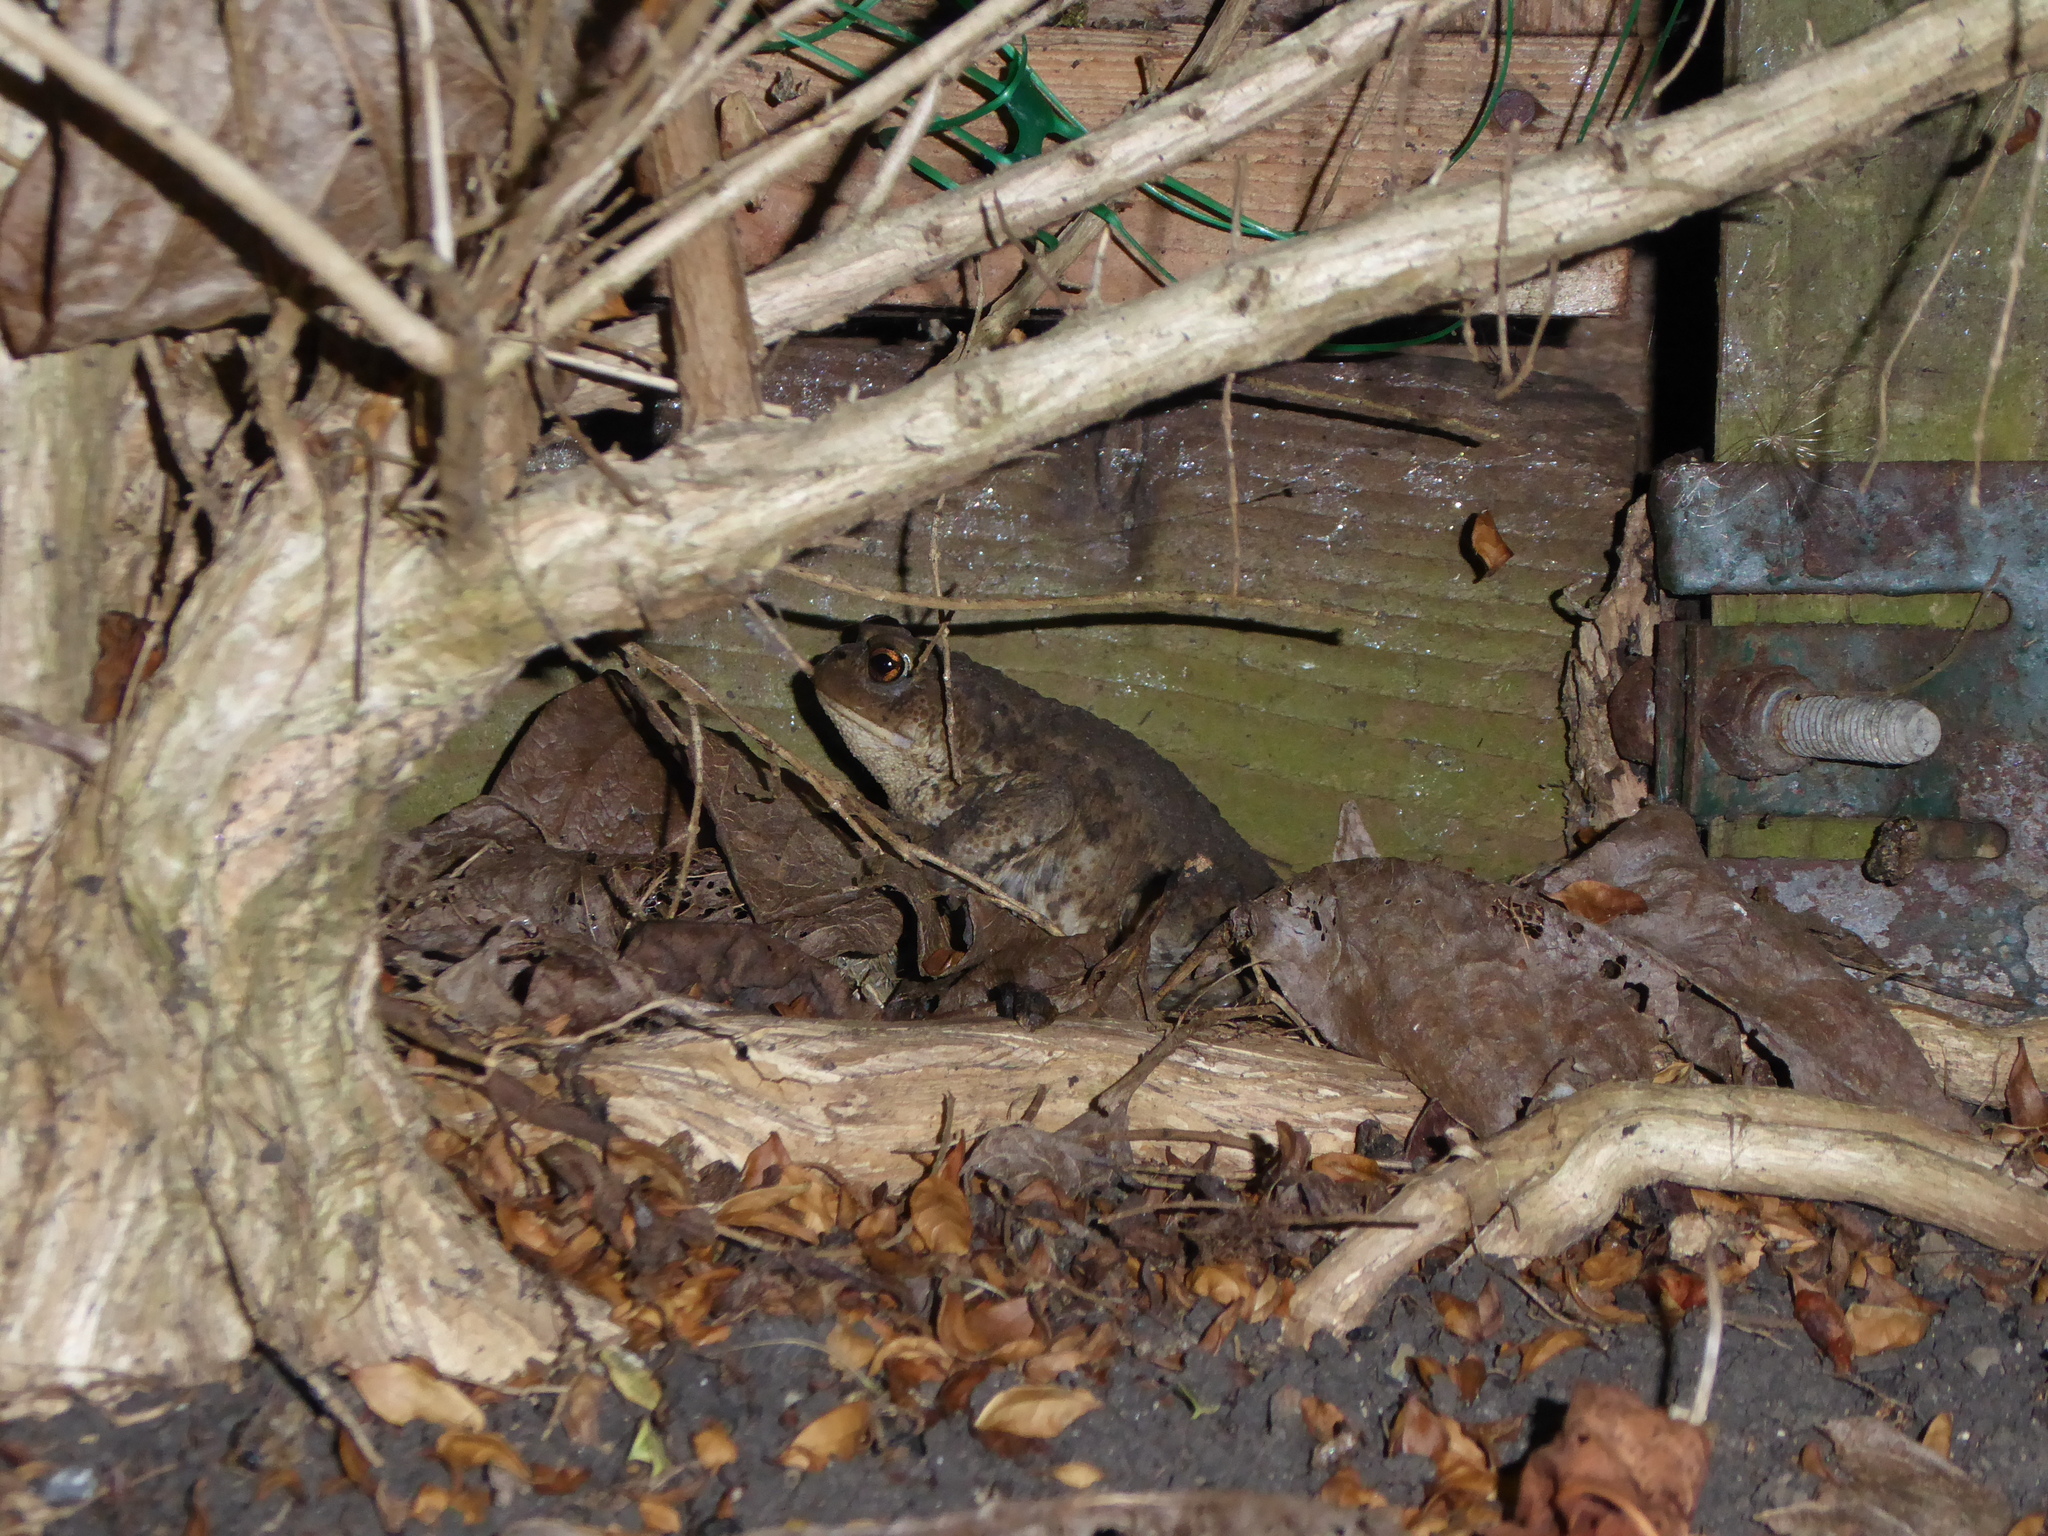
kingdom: Animalia
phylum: Chordata
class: Amphibia
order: Anura
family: Bufonidae
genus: Bufo
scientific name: Bufo bufo
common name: Common toad
